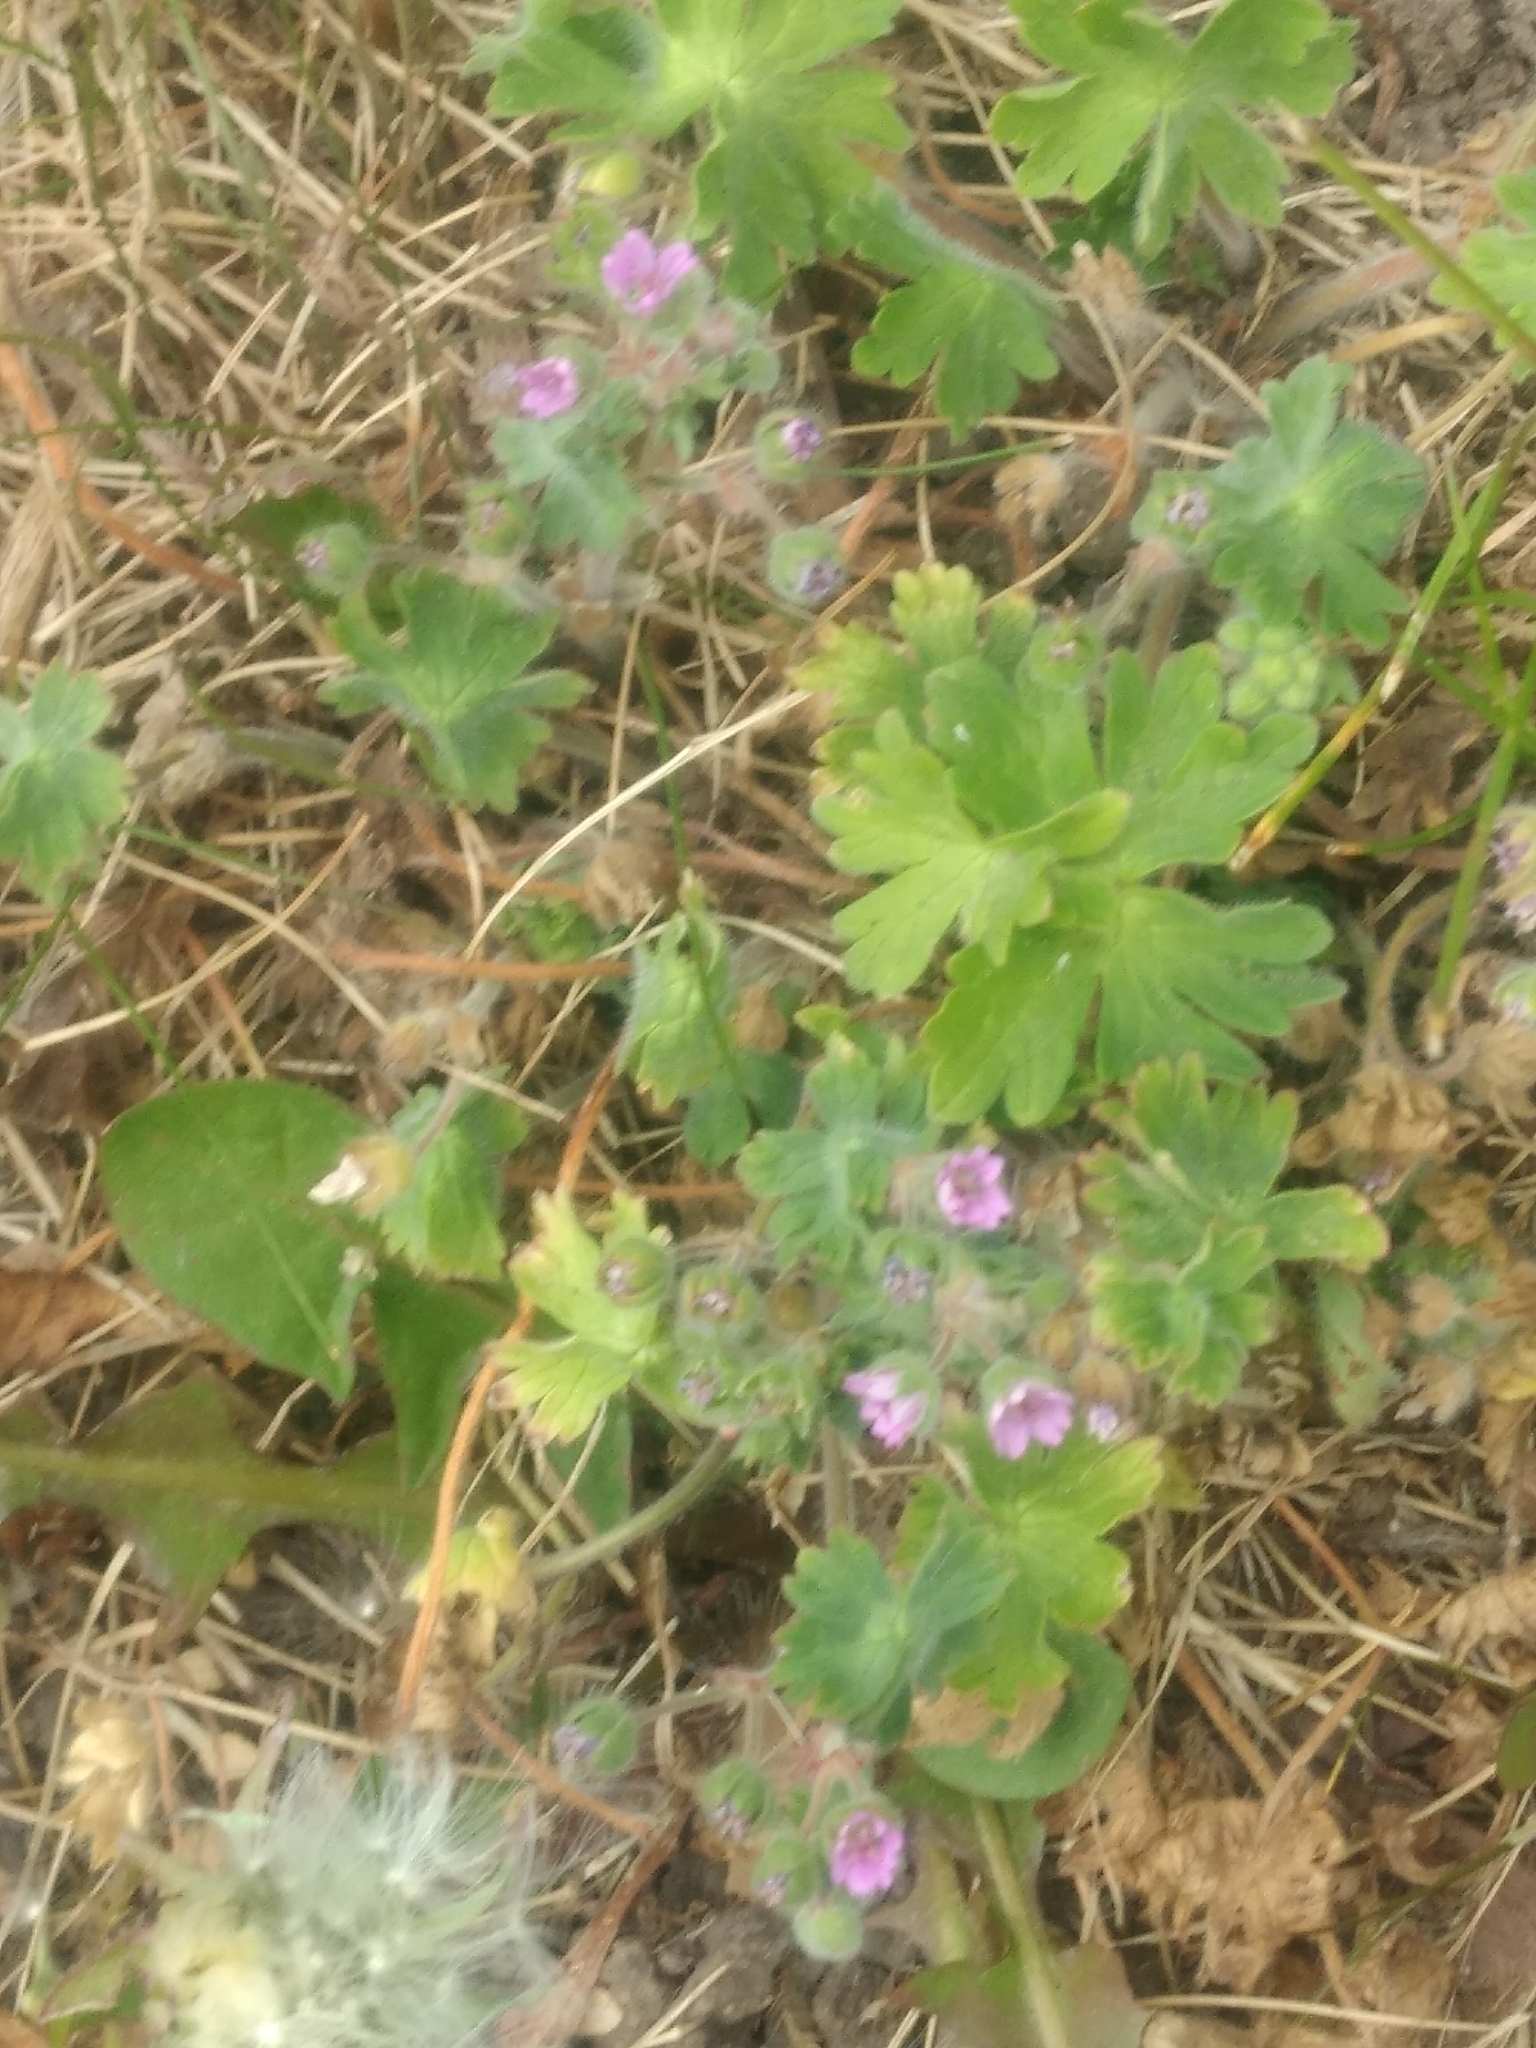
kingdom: Plantae
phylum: Tracheophyta
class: Magnoliopsida
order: Geraniales
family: Geraniaceae
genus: Geranium
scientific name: Geranium molle
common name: Dove's-foot crane's-bill
